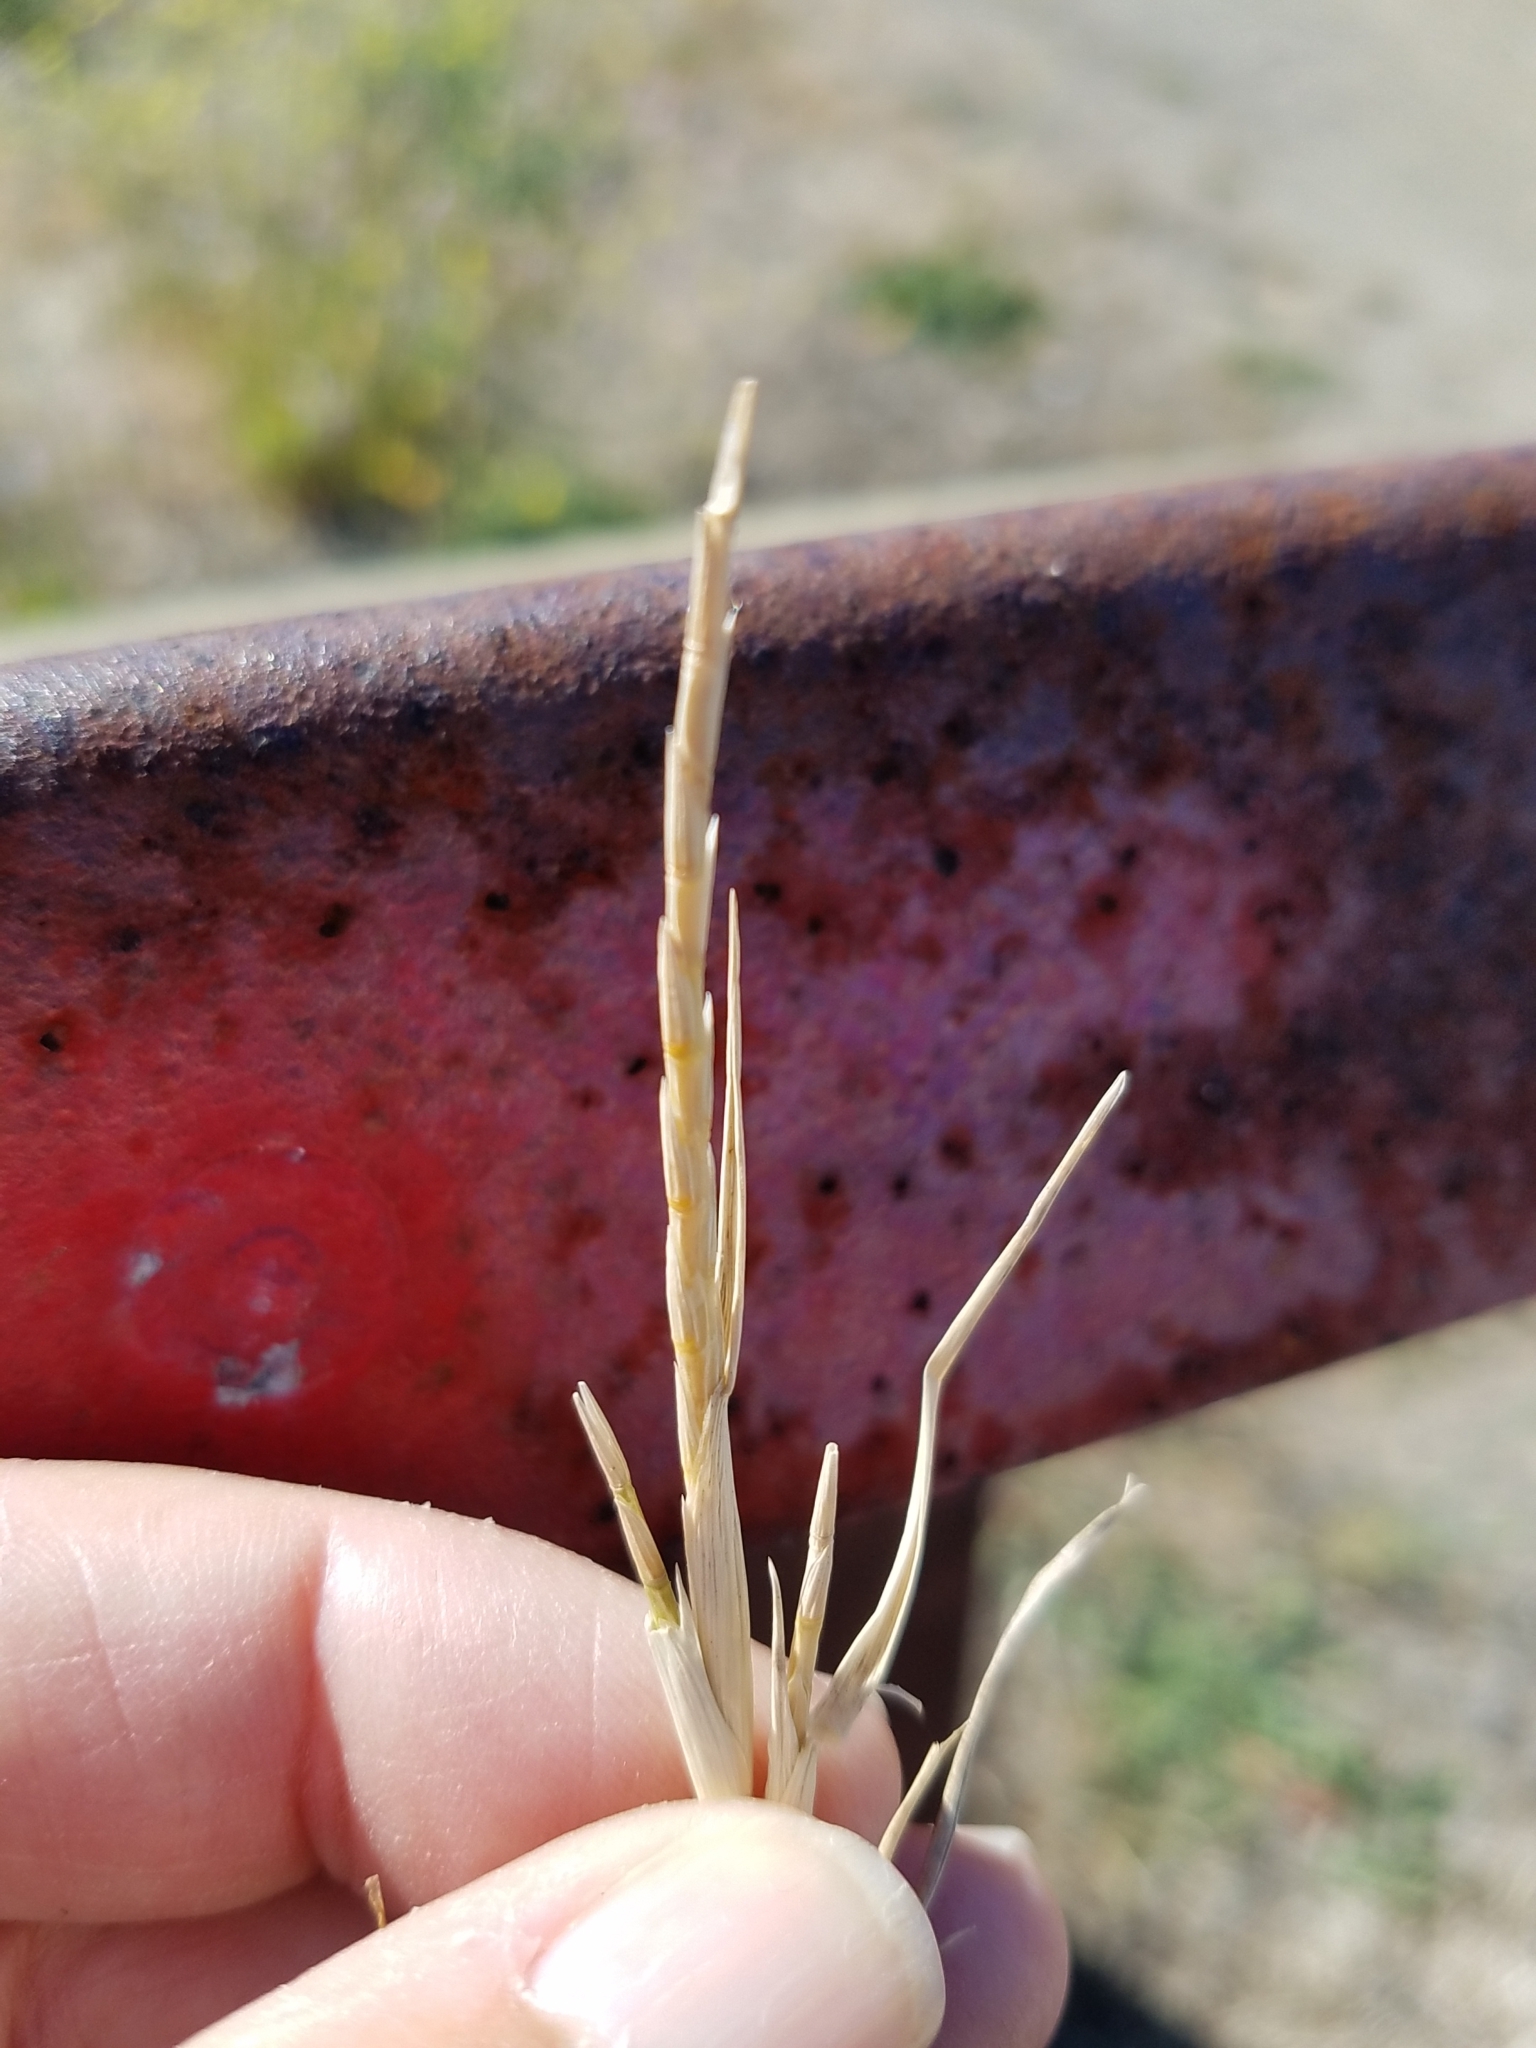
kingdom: Plantae
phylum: Tracheophyta
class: Liliopsida
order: Poales
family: Poaceae
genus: Parapholis
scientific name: Parapholis cylindrica
